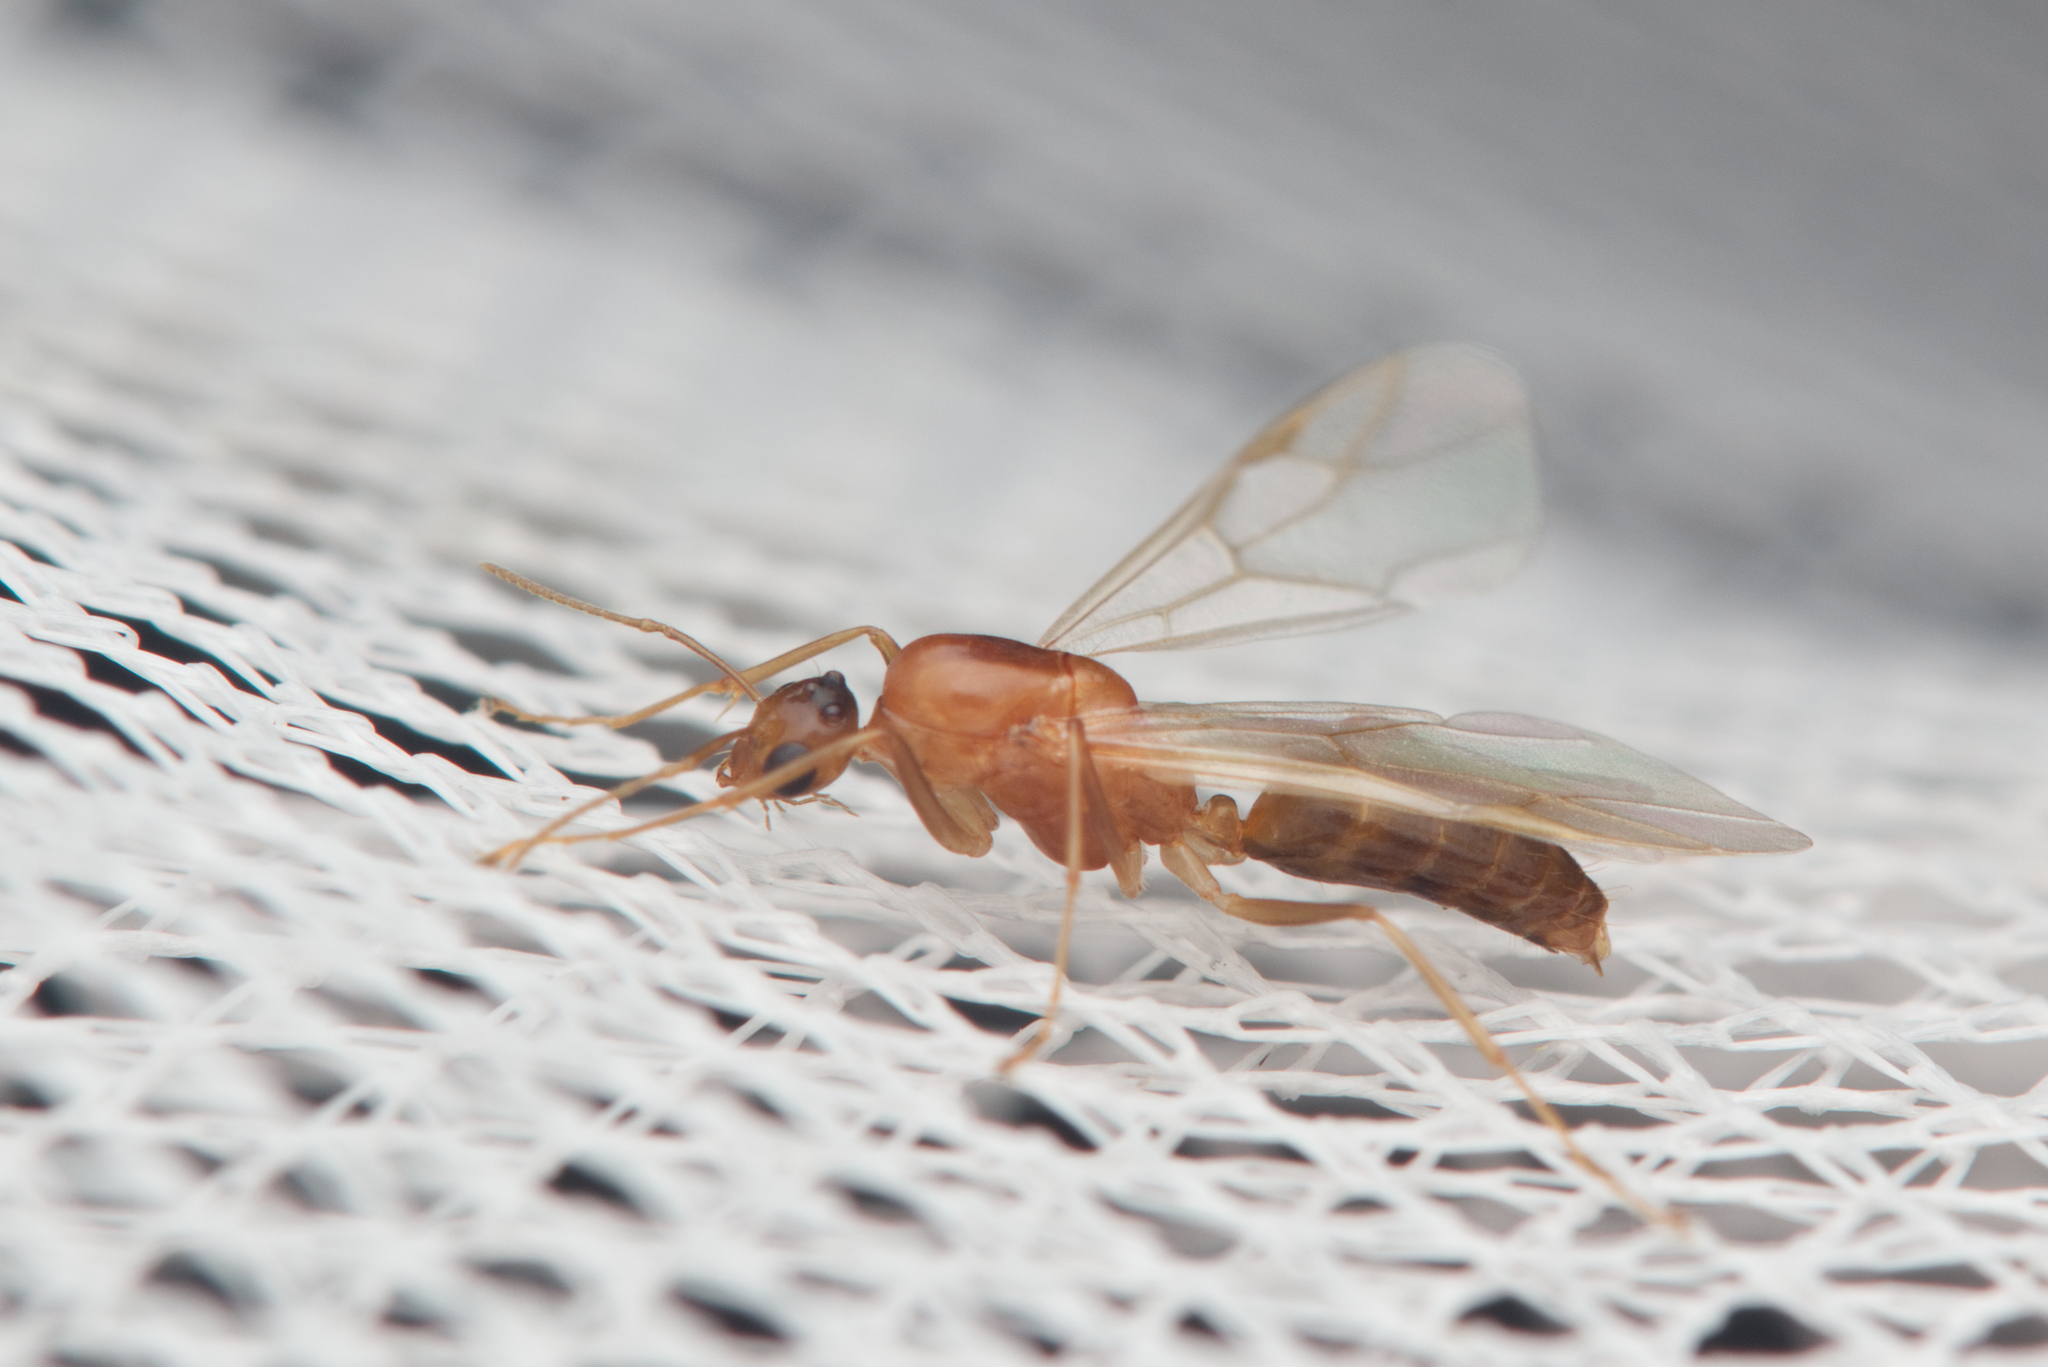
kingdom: Animalia
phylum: Arthropoda
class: Insecta
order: Hymenoptera
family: Formicidae
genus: Colobopsis
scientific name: Colobopsis
